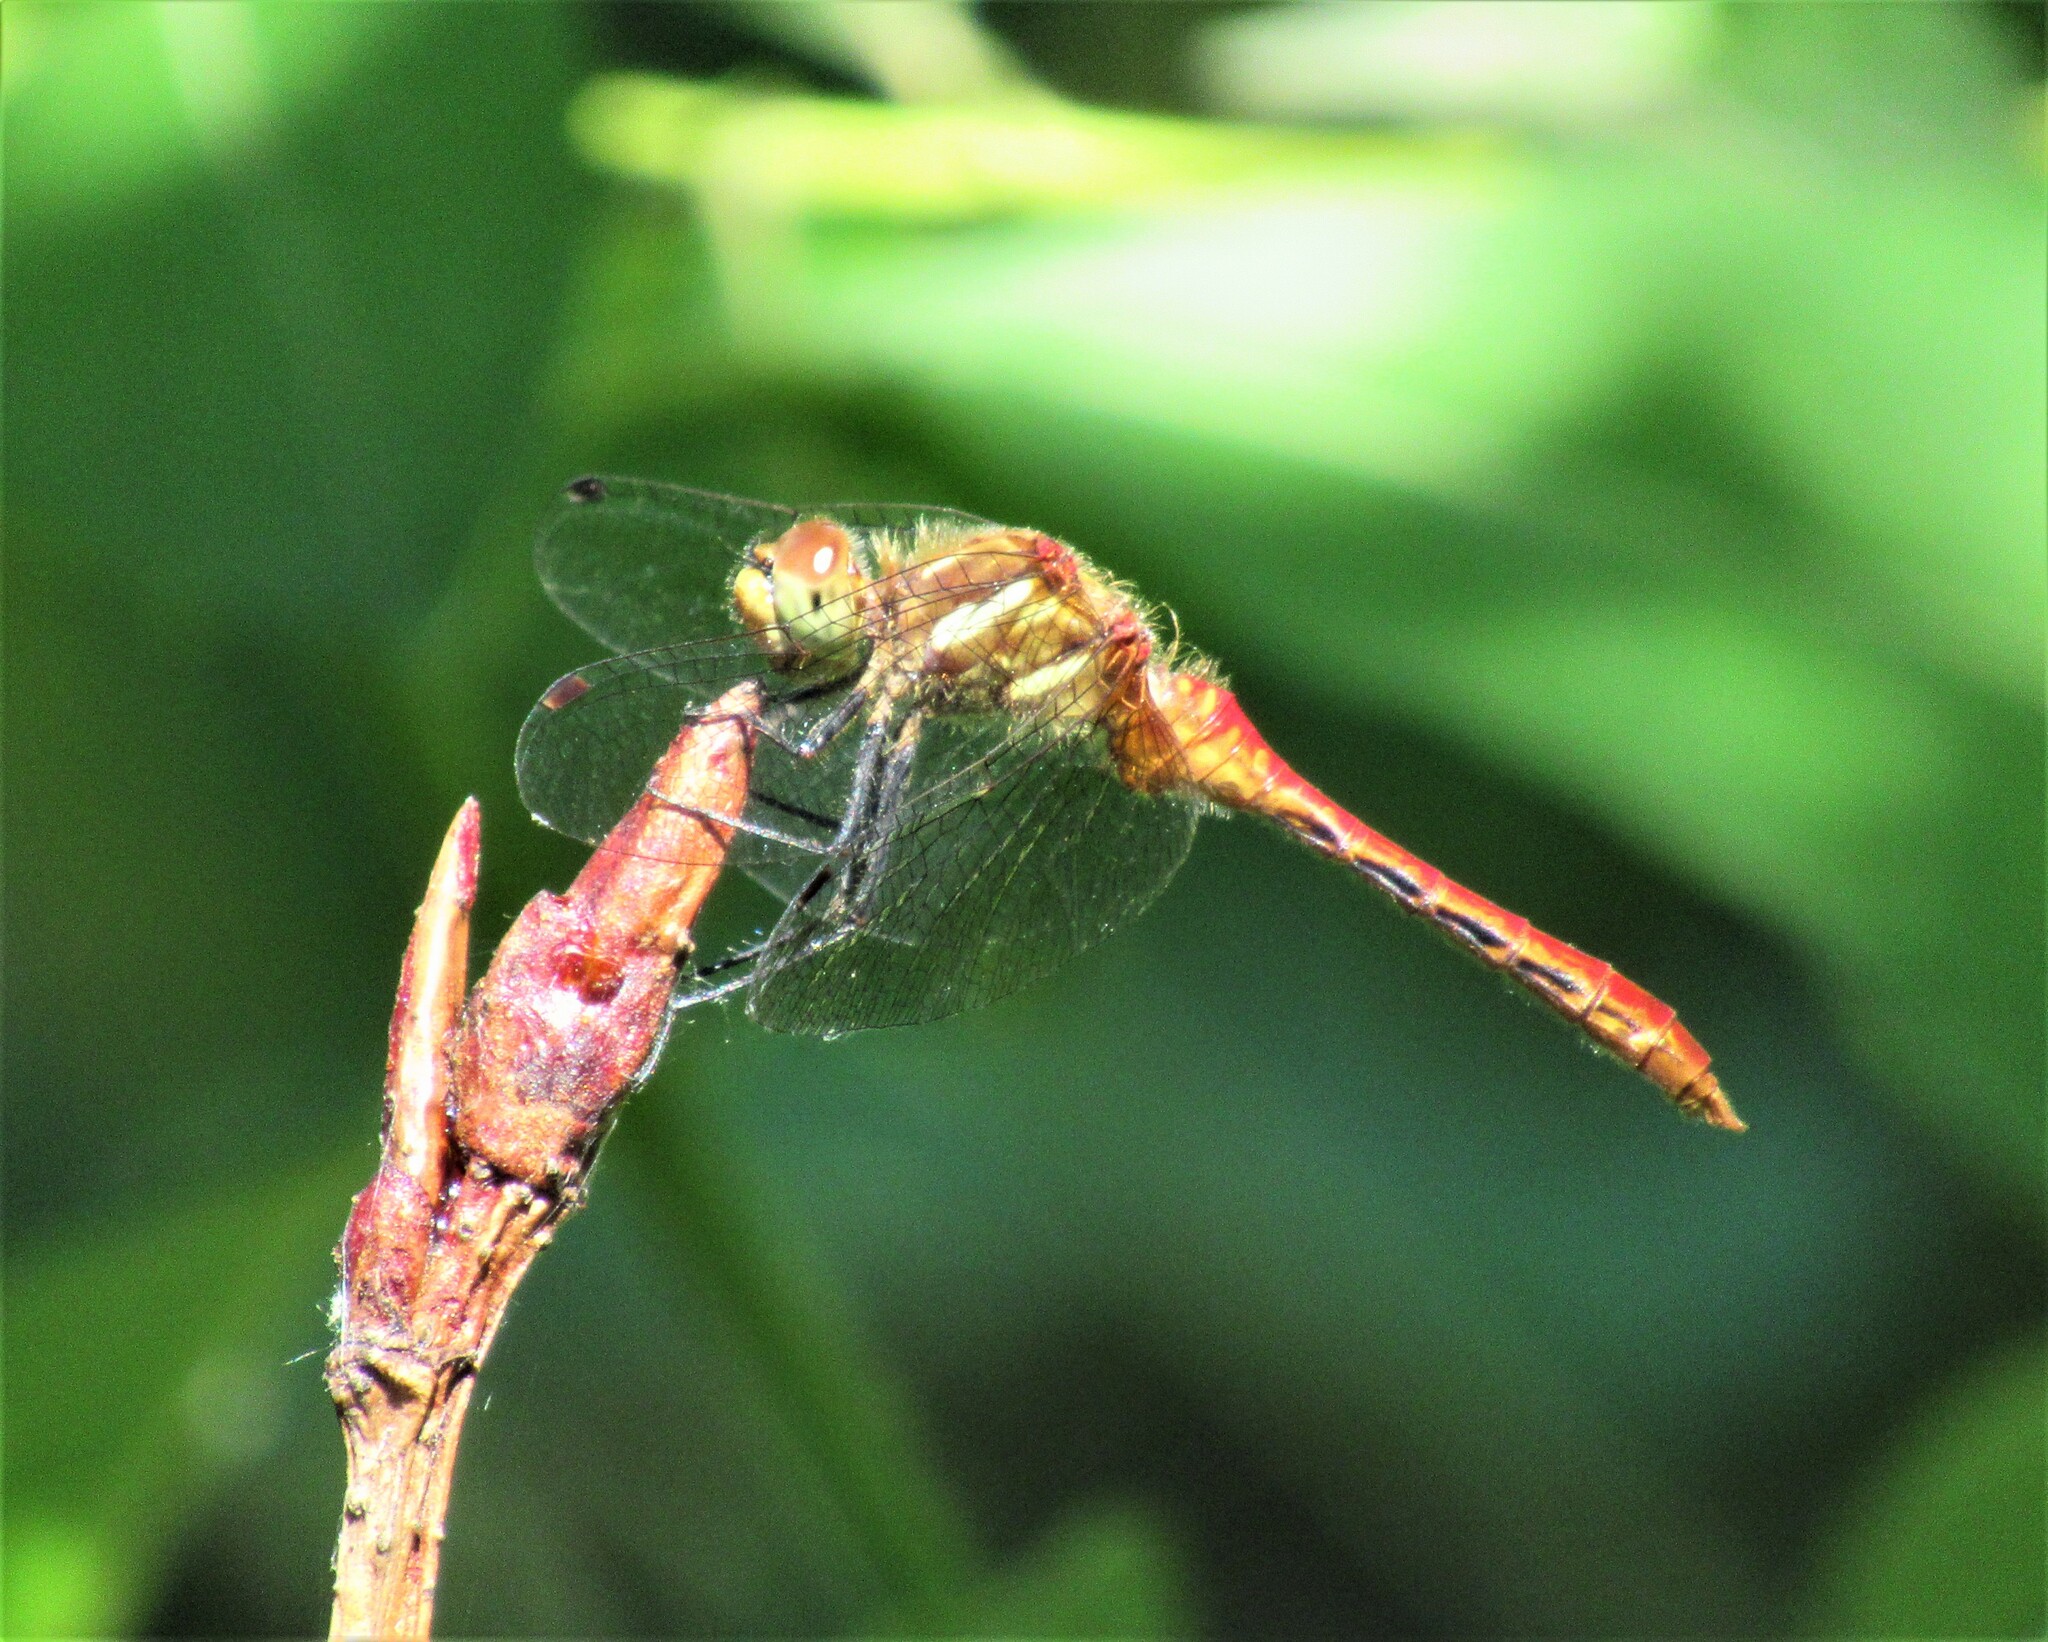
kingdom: Animalia
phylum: Arthropoda
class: Insecta
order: Odonata
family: Libellulidae
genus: Sympetrum
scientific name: Sympetrum pallipes
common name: Striped meadowhawk
